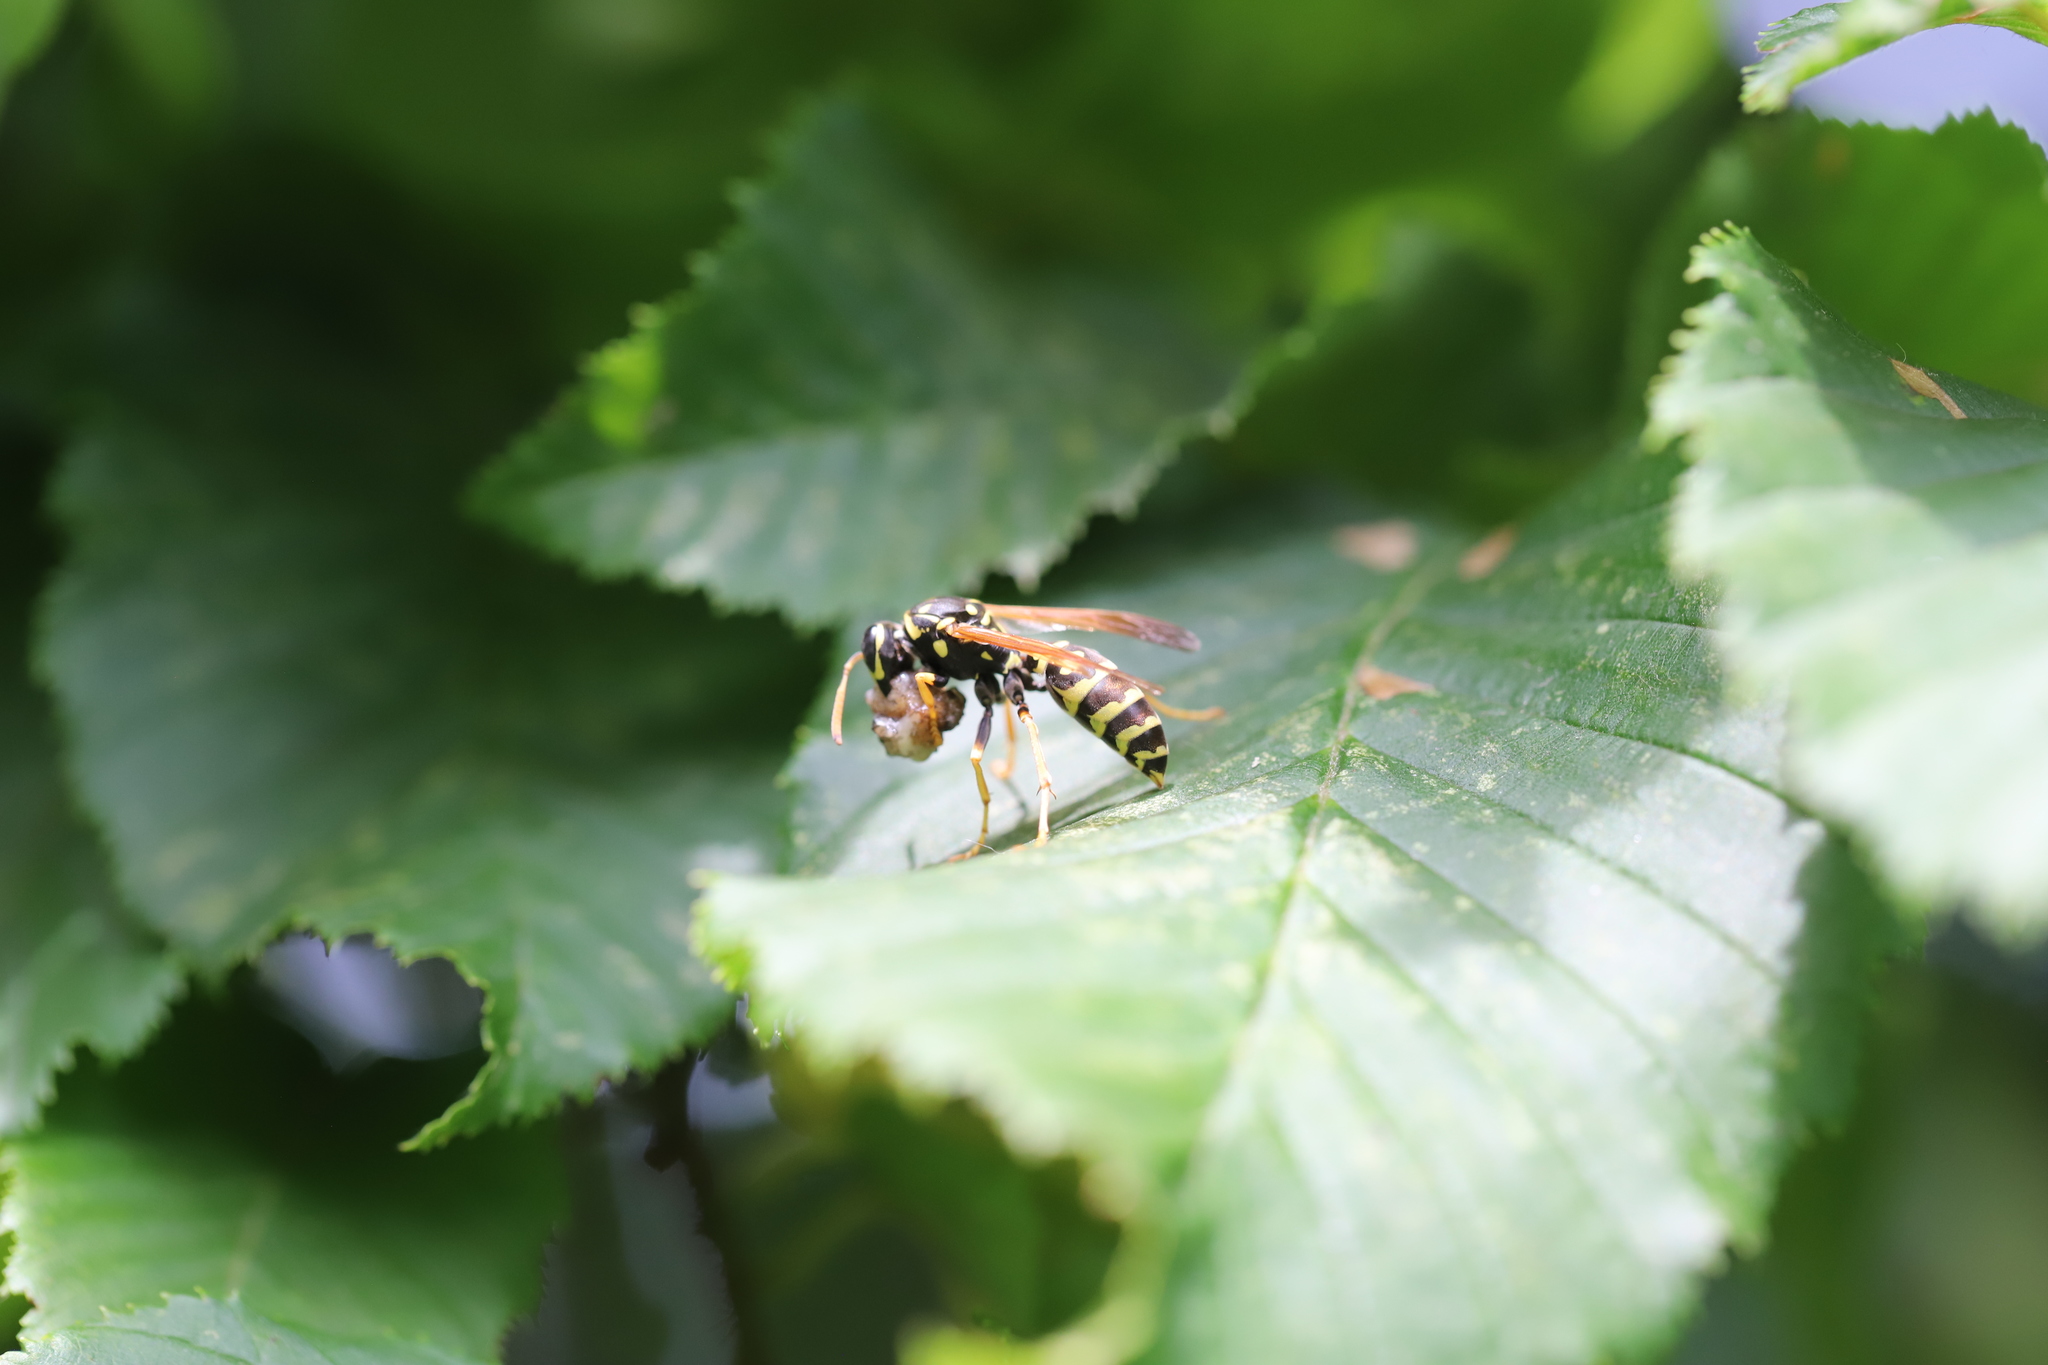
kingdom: Animalia
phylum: Arthropoda
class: Insecta
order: Hymenoptera
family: Eumenidae
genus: Polistes
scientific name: Polistes dominula
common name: Paper wasp
